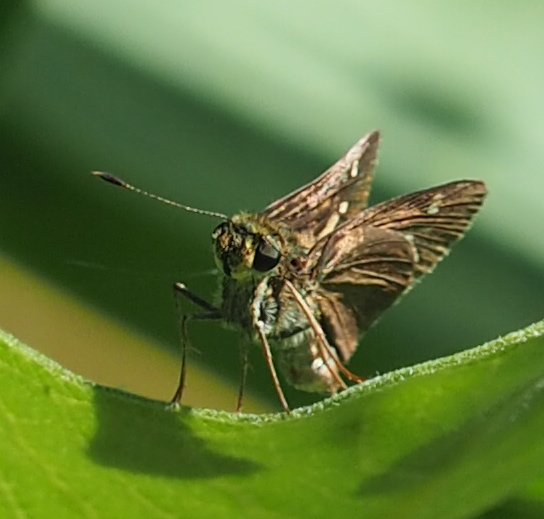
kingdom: Animalia
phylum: Arthropoda
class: Insecta
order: Lepidoptera
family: Hesperiidae
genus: Vernia
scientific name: Vernia verna
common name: Little glassywing
